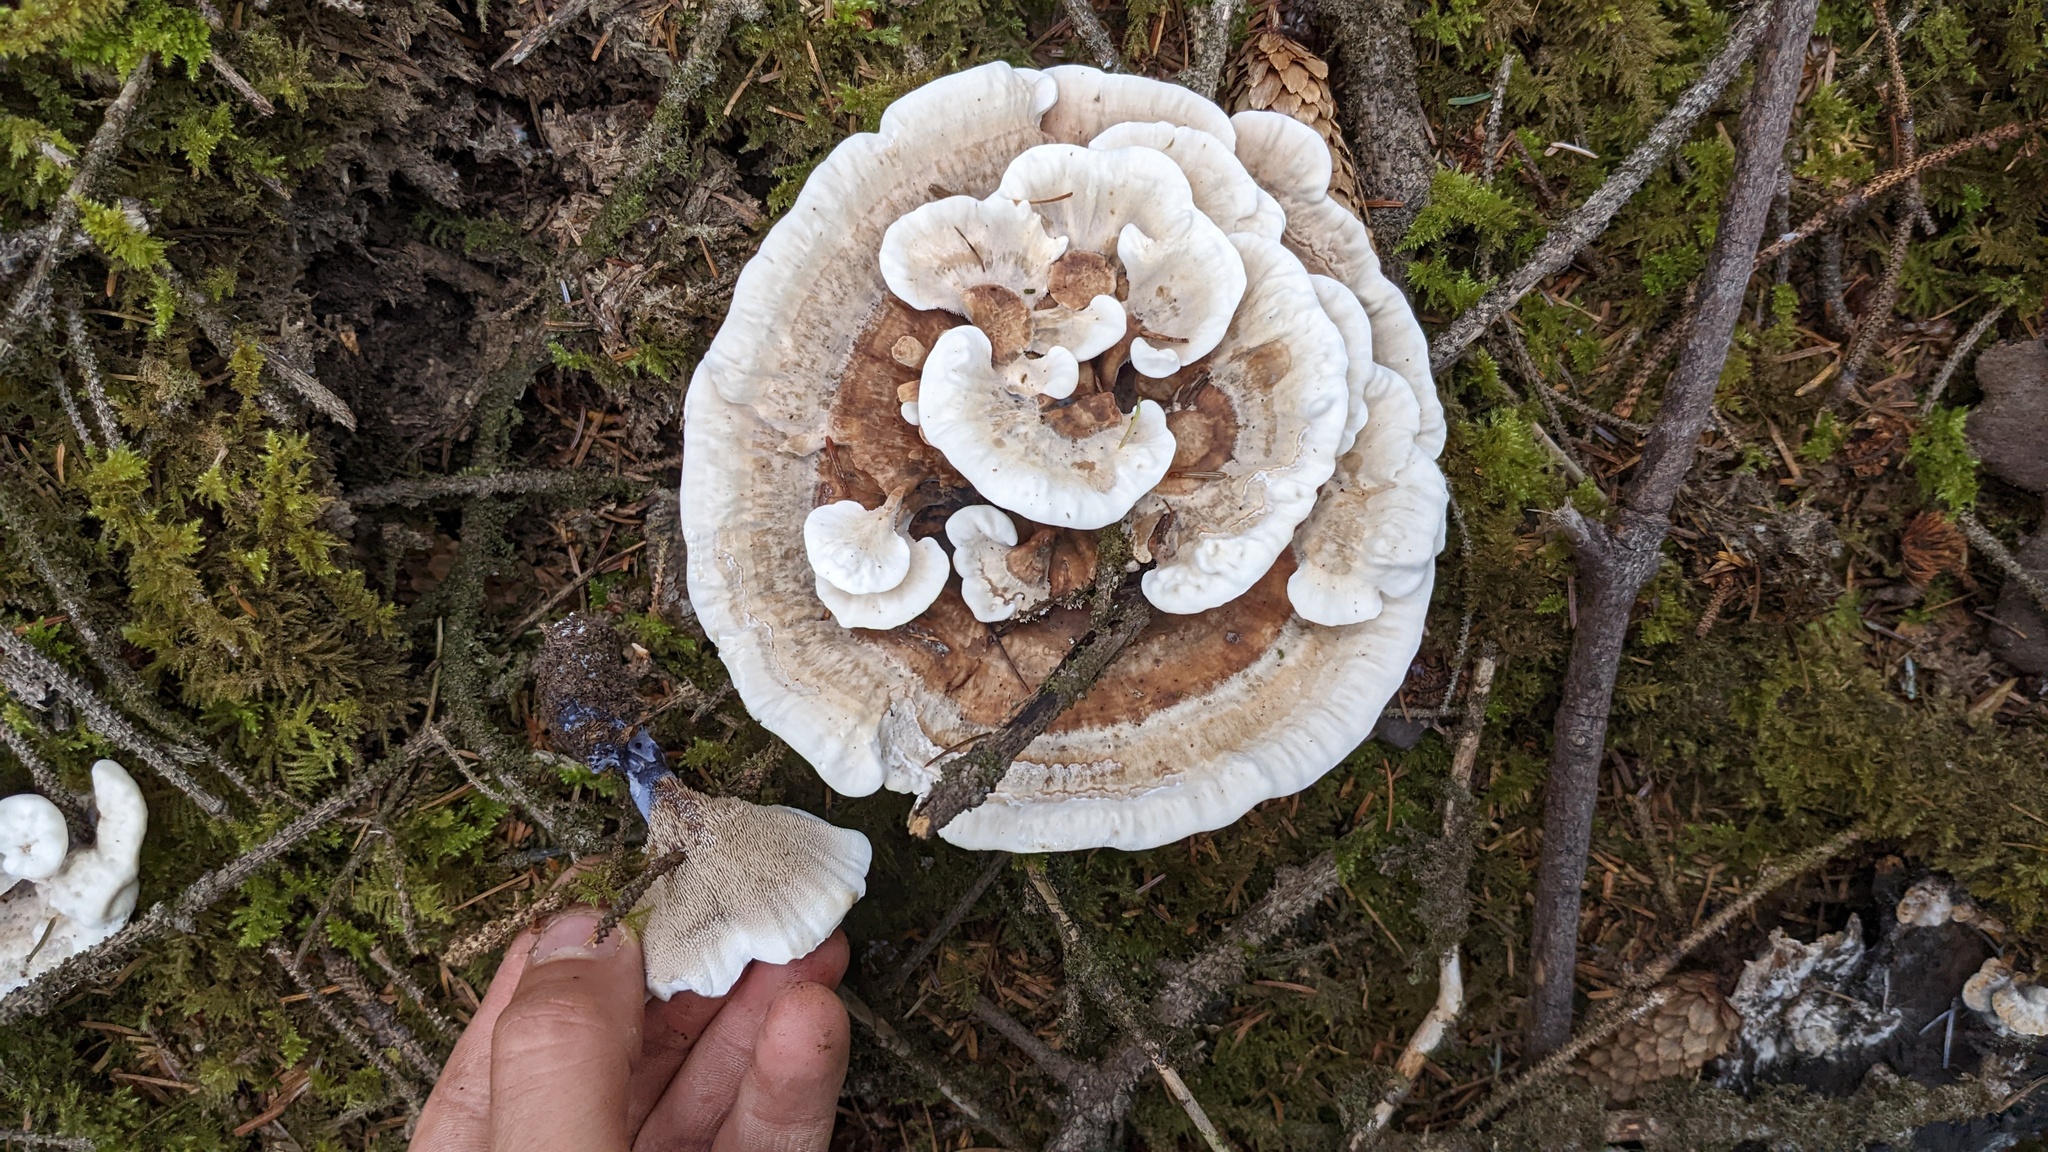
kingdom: Fungi
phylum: Basidiomycota
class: Agaricomycetes
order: Thelephorales
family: Bankeraceae
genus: Hydnellum
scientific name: Hydnellum suaveolens
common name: Sweetgrass hydnellum
